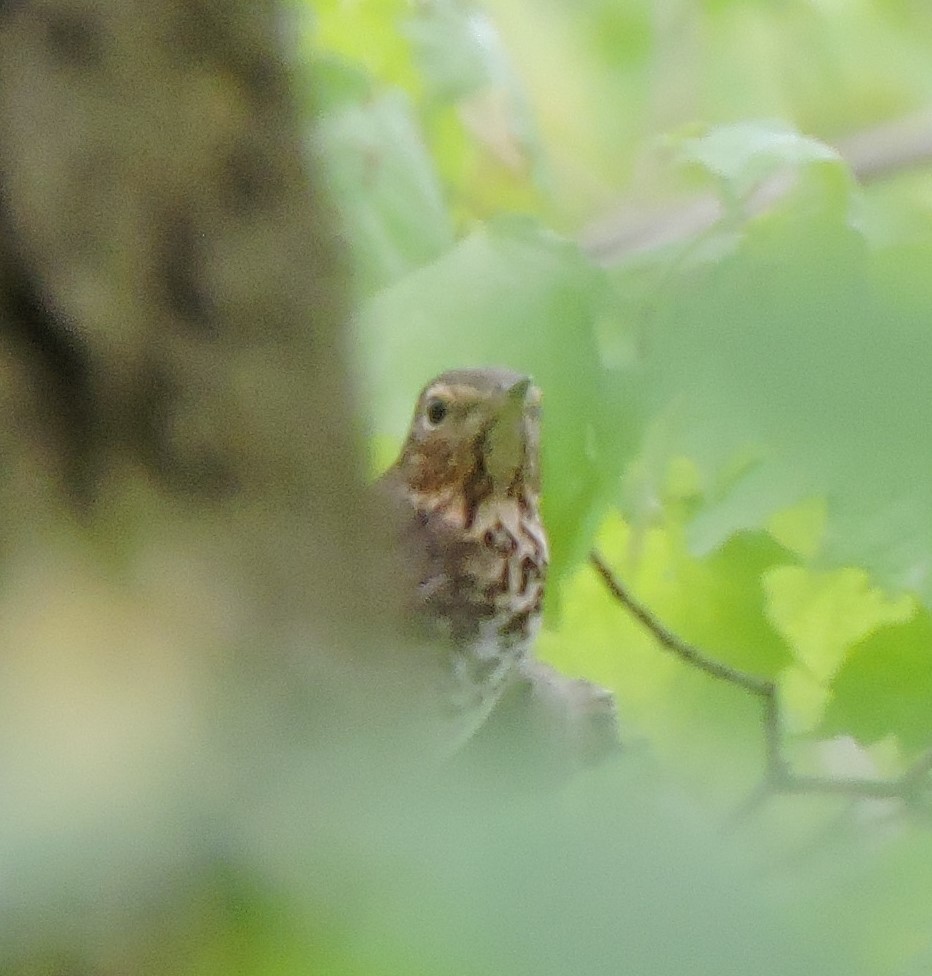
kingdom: Animalia
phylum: Chordata
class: Aves
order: Passeriformes
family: Turdidae
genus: Catharus
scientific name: Catharus ustulatus
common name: Swainson's thrush
